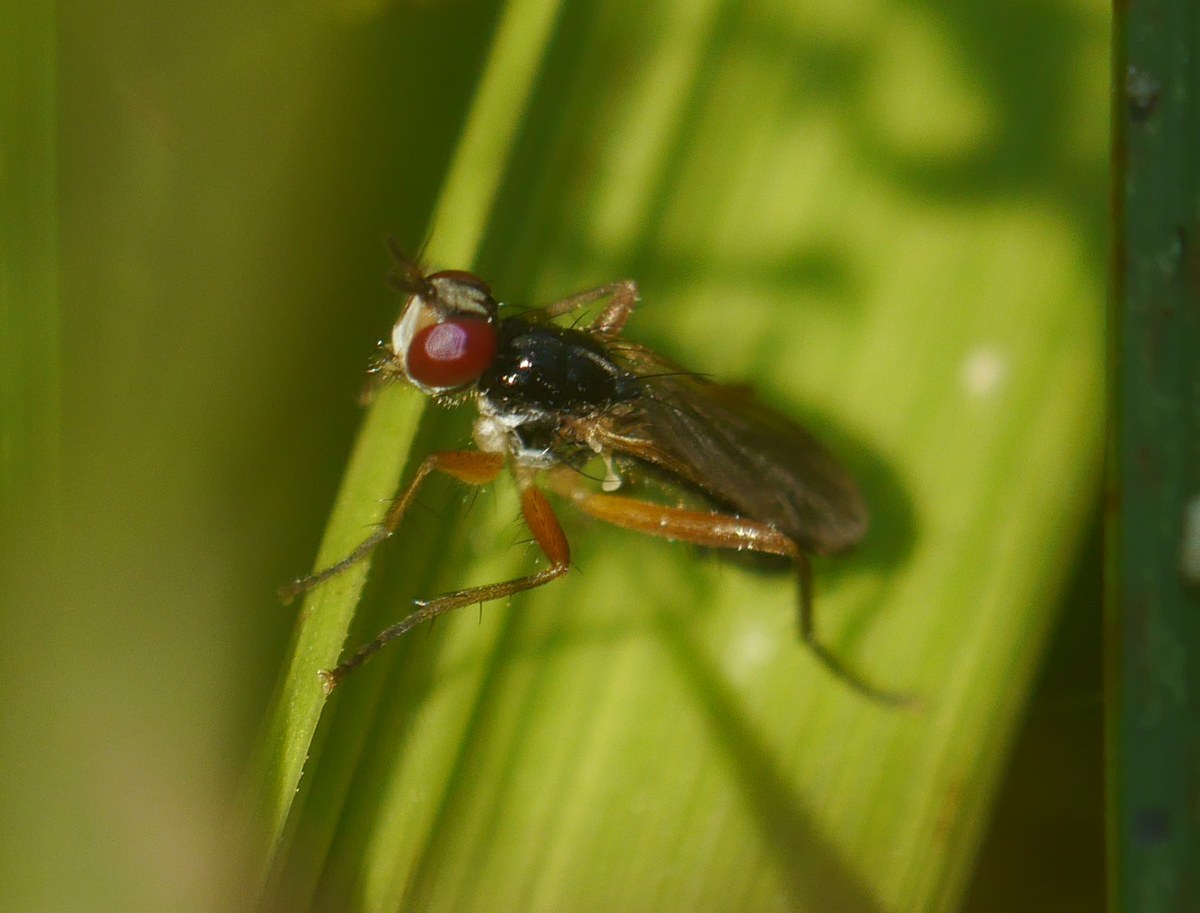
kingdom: Animalia
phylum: Arthropoda
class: Insecta
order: Diptera
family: Scathophagidae
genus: Cordilura
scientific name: Cordilura albilabris
